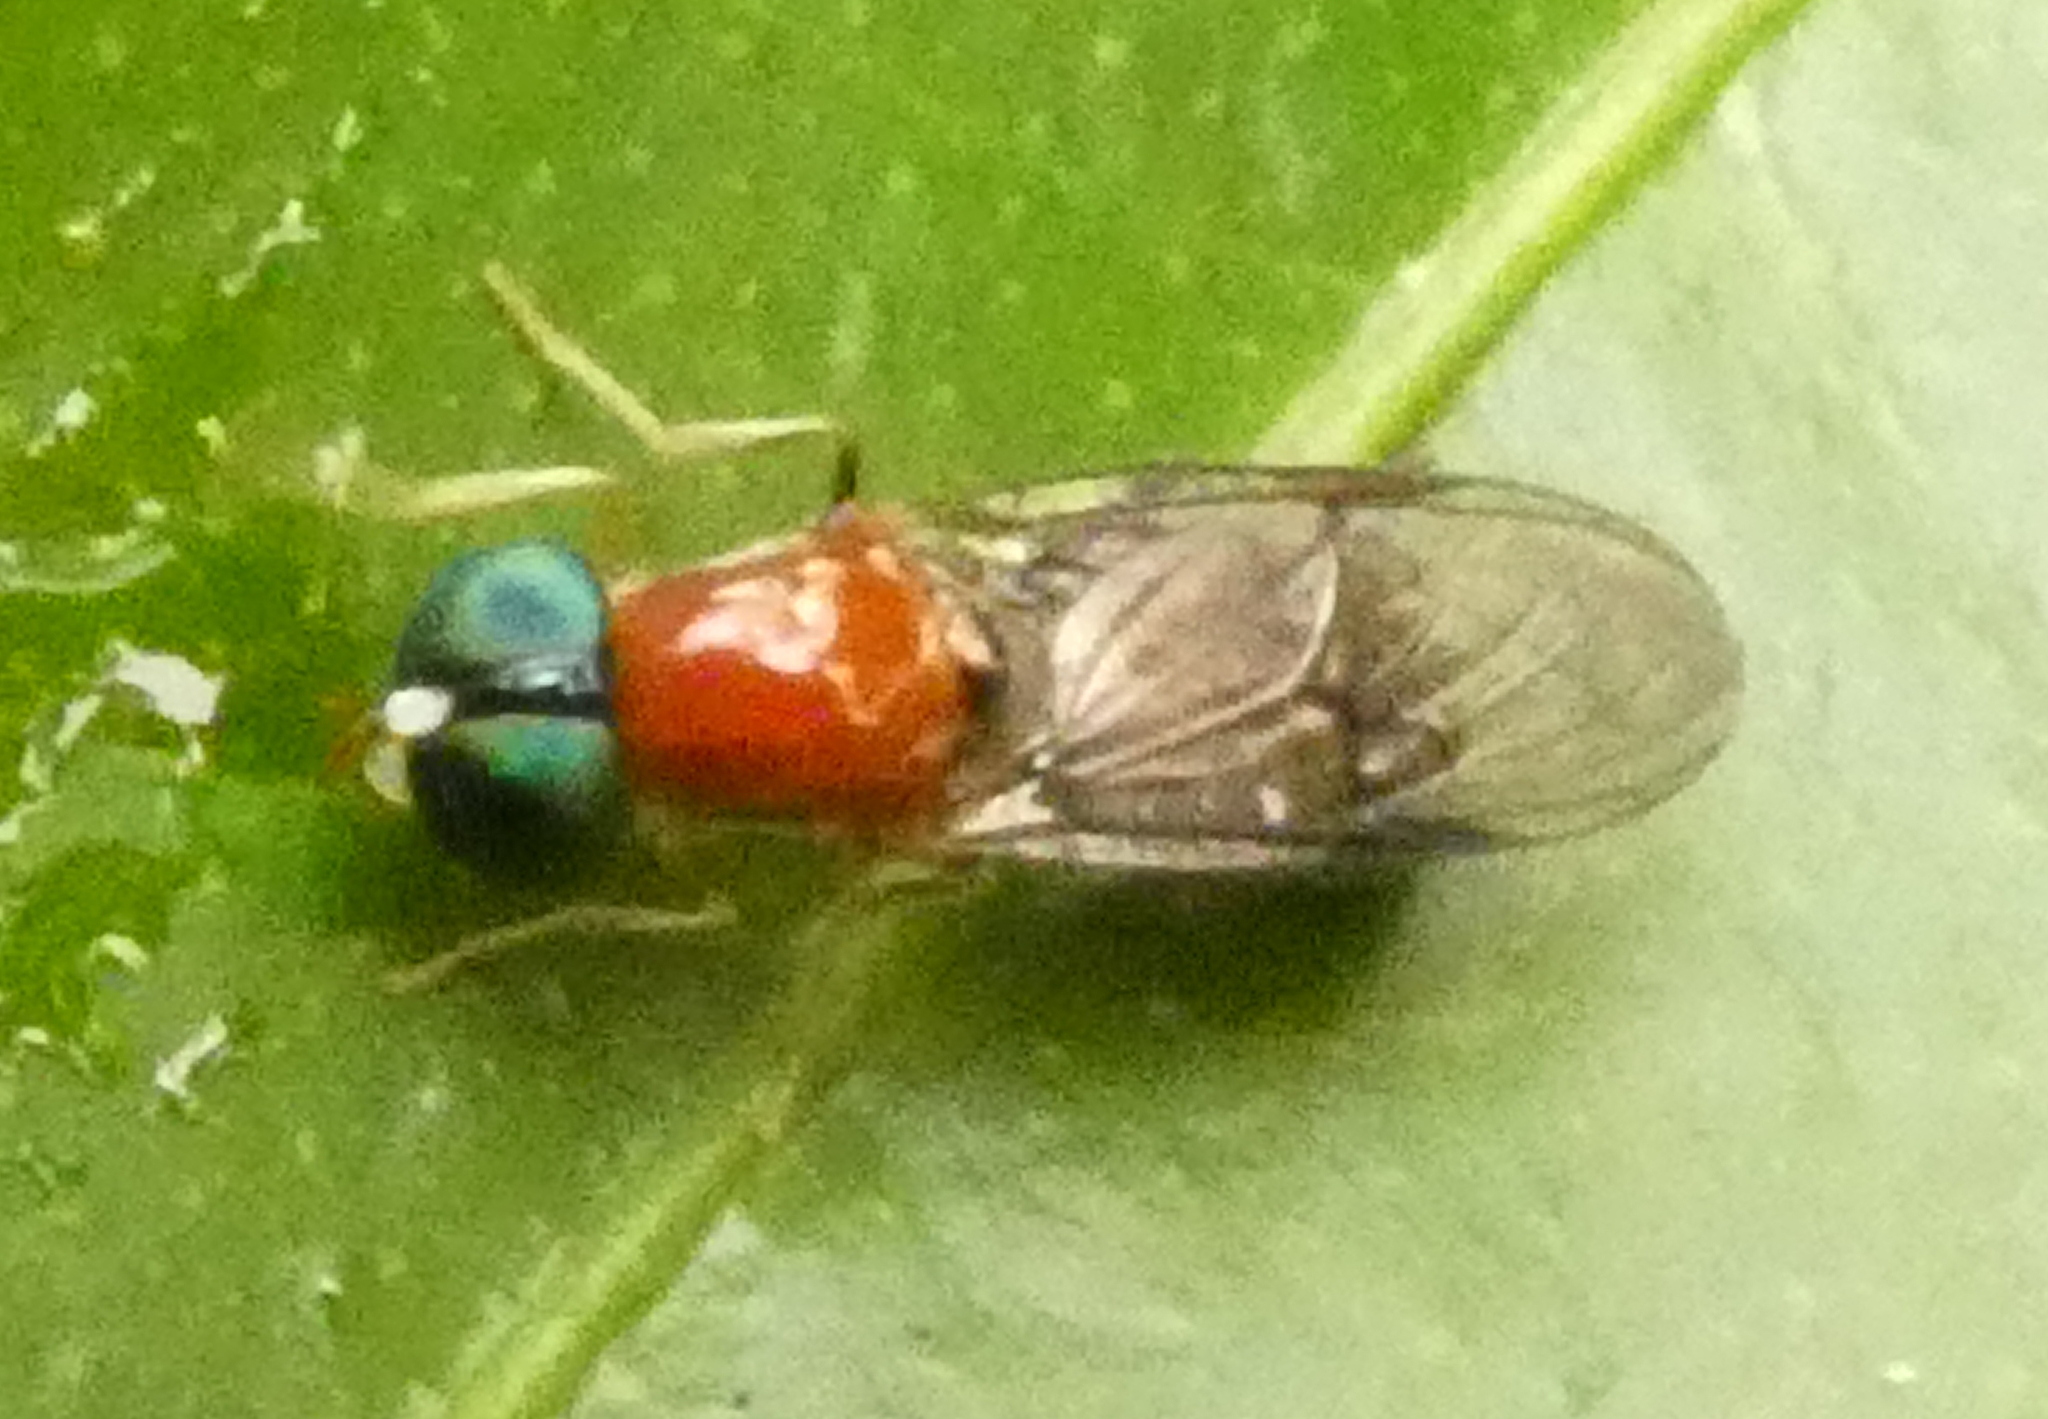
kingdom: Animalia
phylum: Arthropoda
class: Insecta
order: Diptera
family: Stratiomyidae
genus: Sargus
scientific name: Sargus thoracicus
